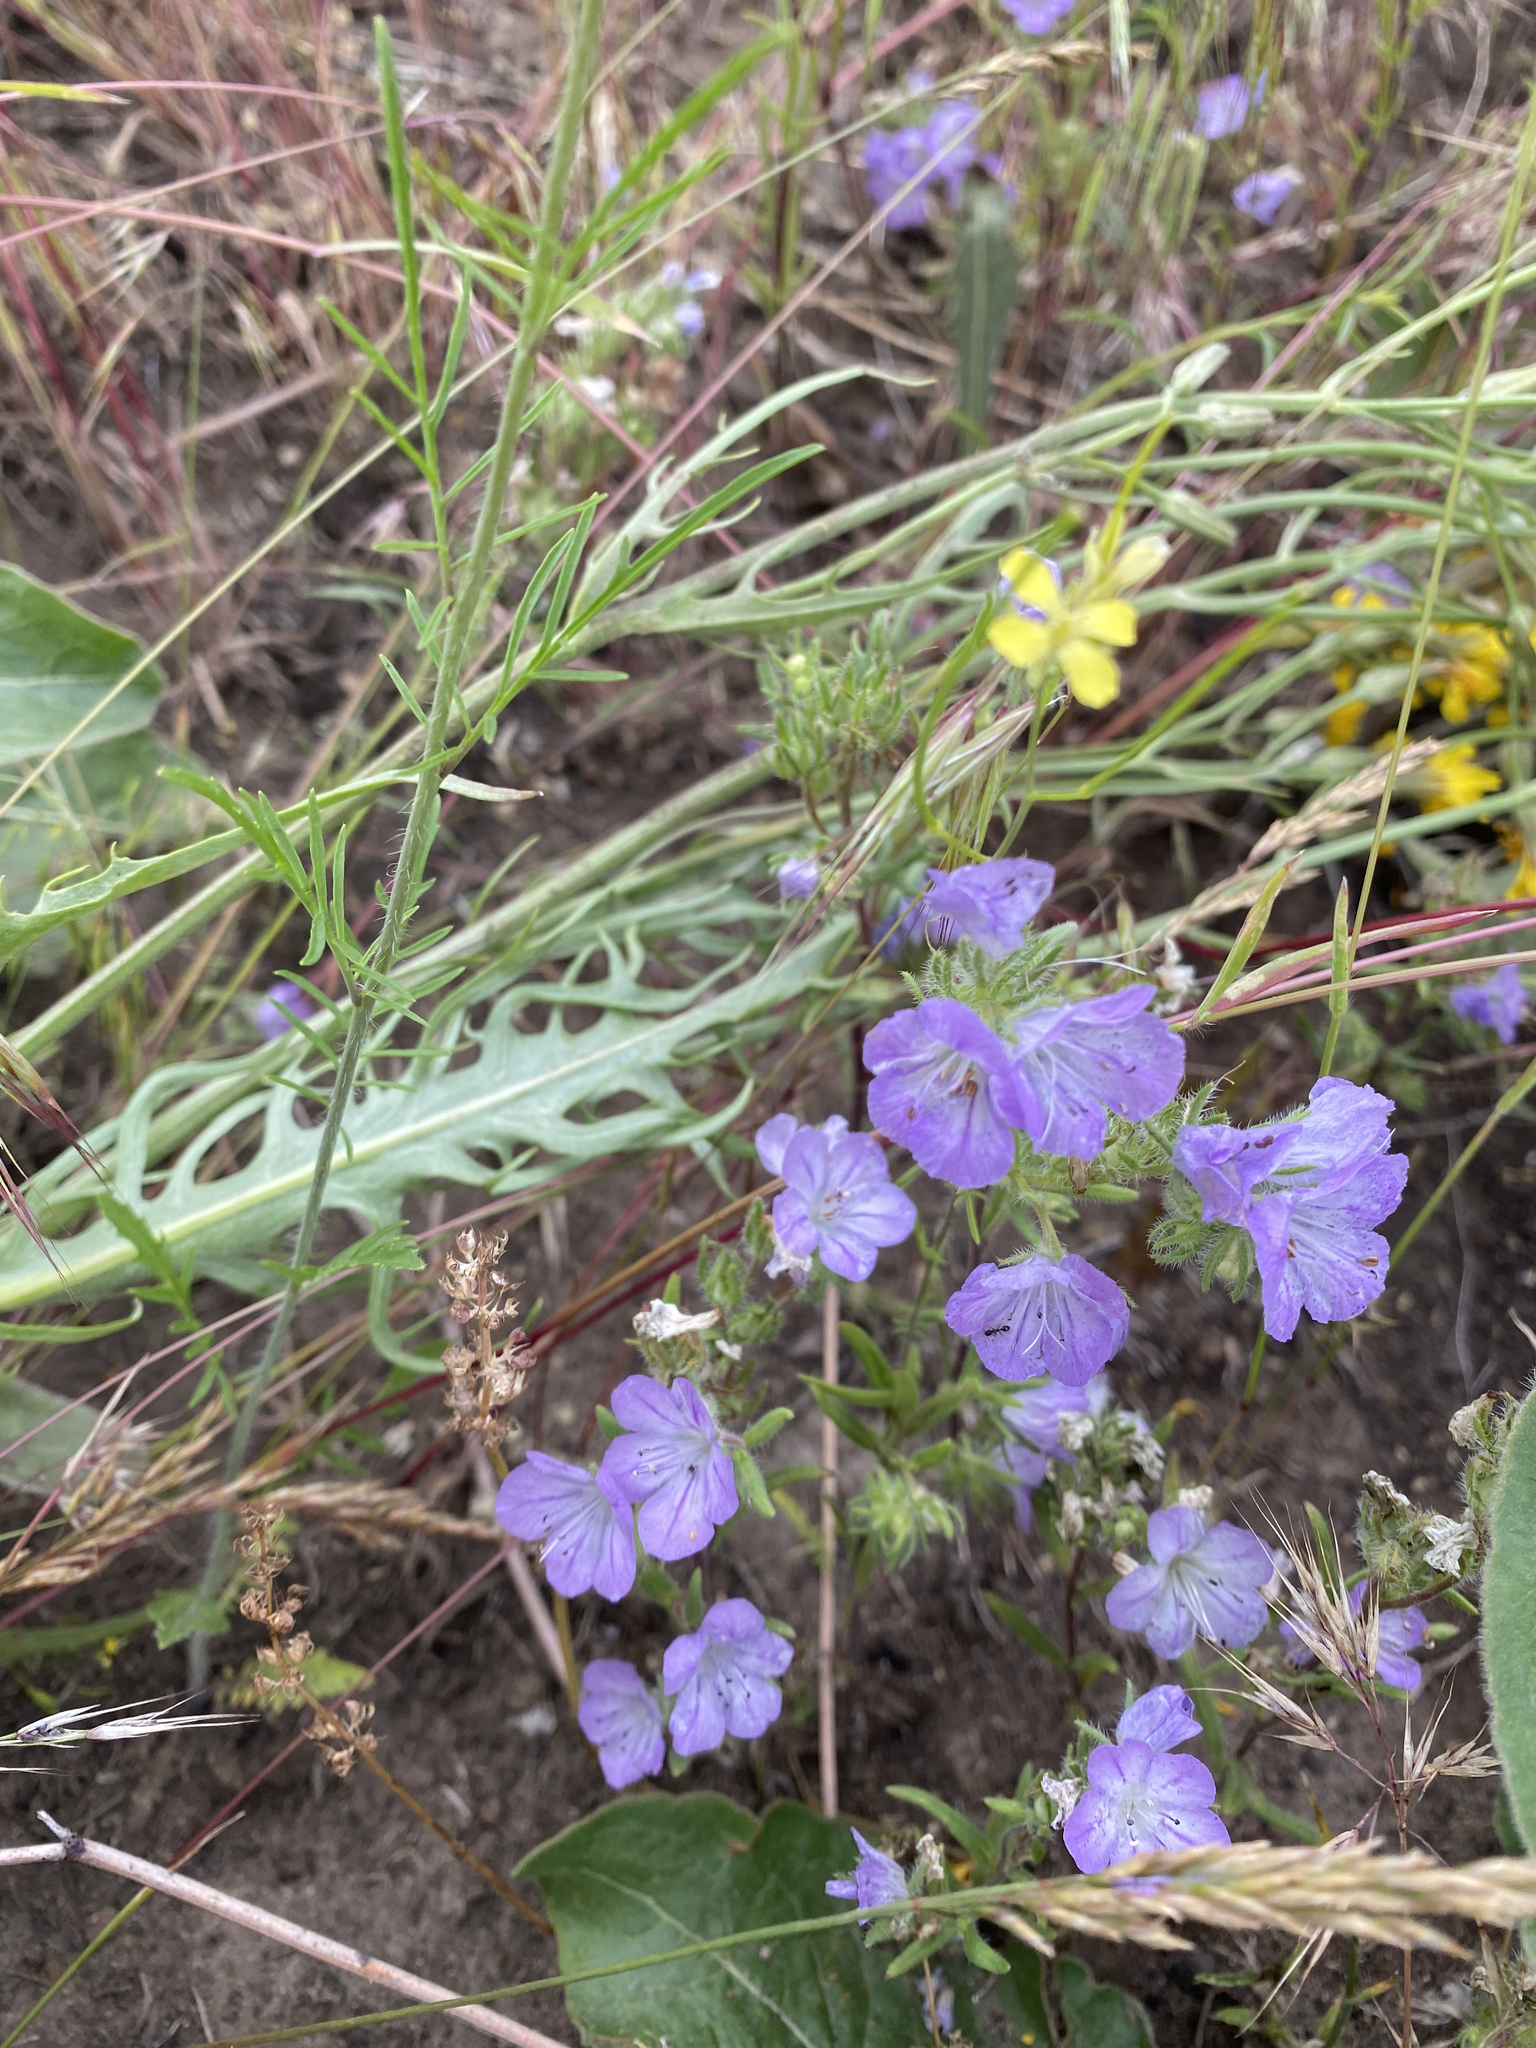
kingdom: Plantae
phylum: Tracheophyta
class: Magnoliopsida
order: Boraginales
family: Hydrophyllaceae
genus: Phacelia
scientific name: Phacelia linearis
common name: Linear-leaved phacelia
